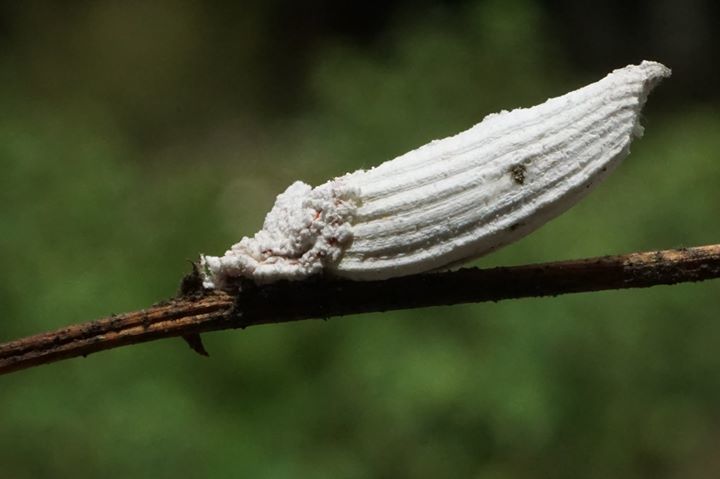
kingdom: Animalia
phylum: Arthropoda
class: Insecta
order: Hemiptera
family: Margarodidae
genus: Crypticerya
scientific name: Crypticerya genistae
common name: Giant scale insect
